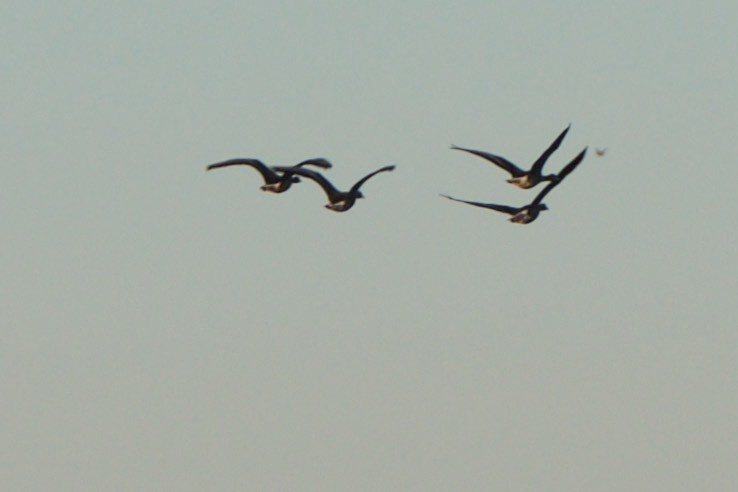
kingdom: Animalia
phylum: Chordata
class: Aves
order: Anseriformes
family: Anatidae
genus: Anser
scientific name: Anser albifrons
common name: Greater white-fronted goose
